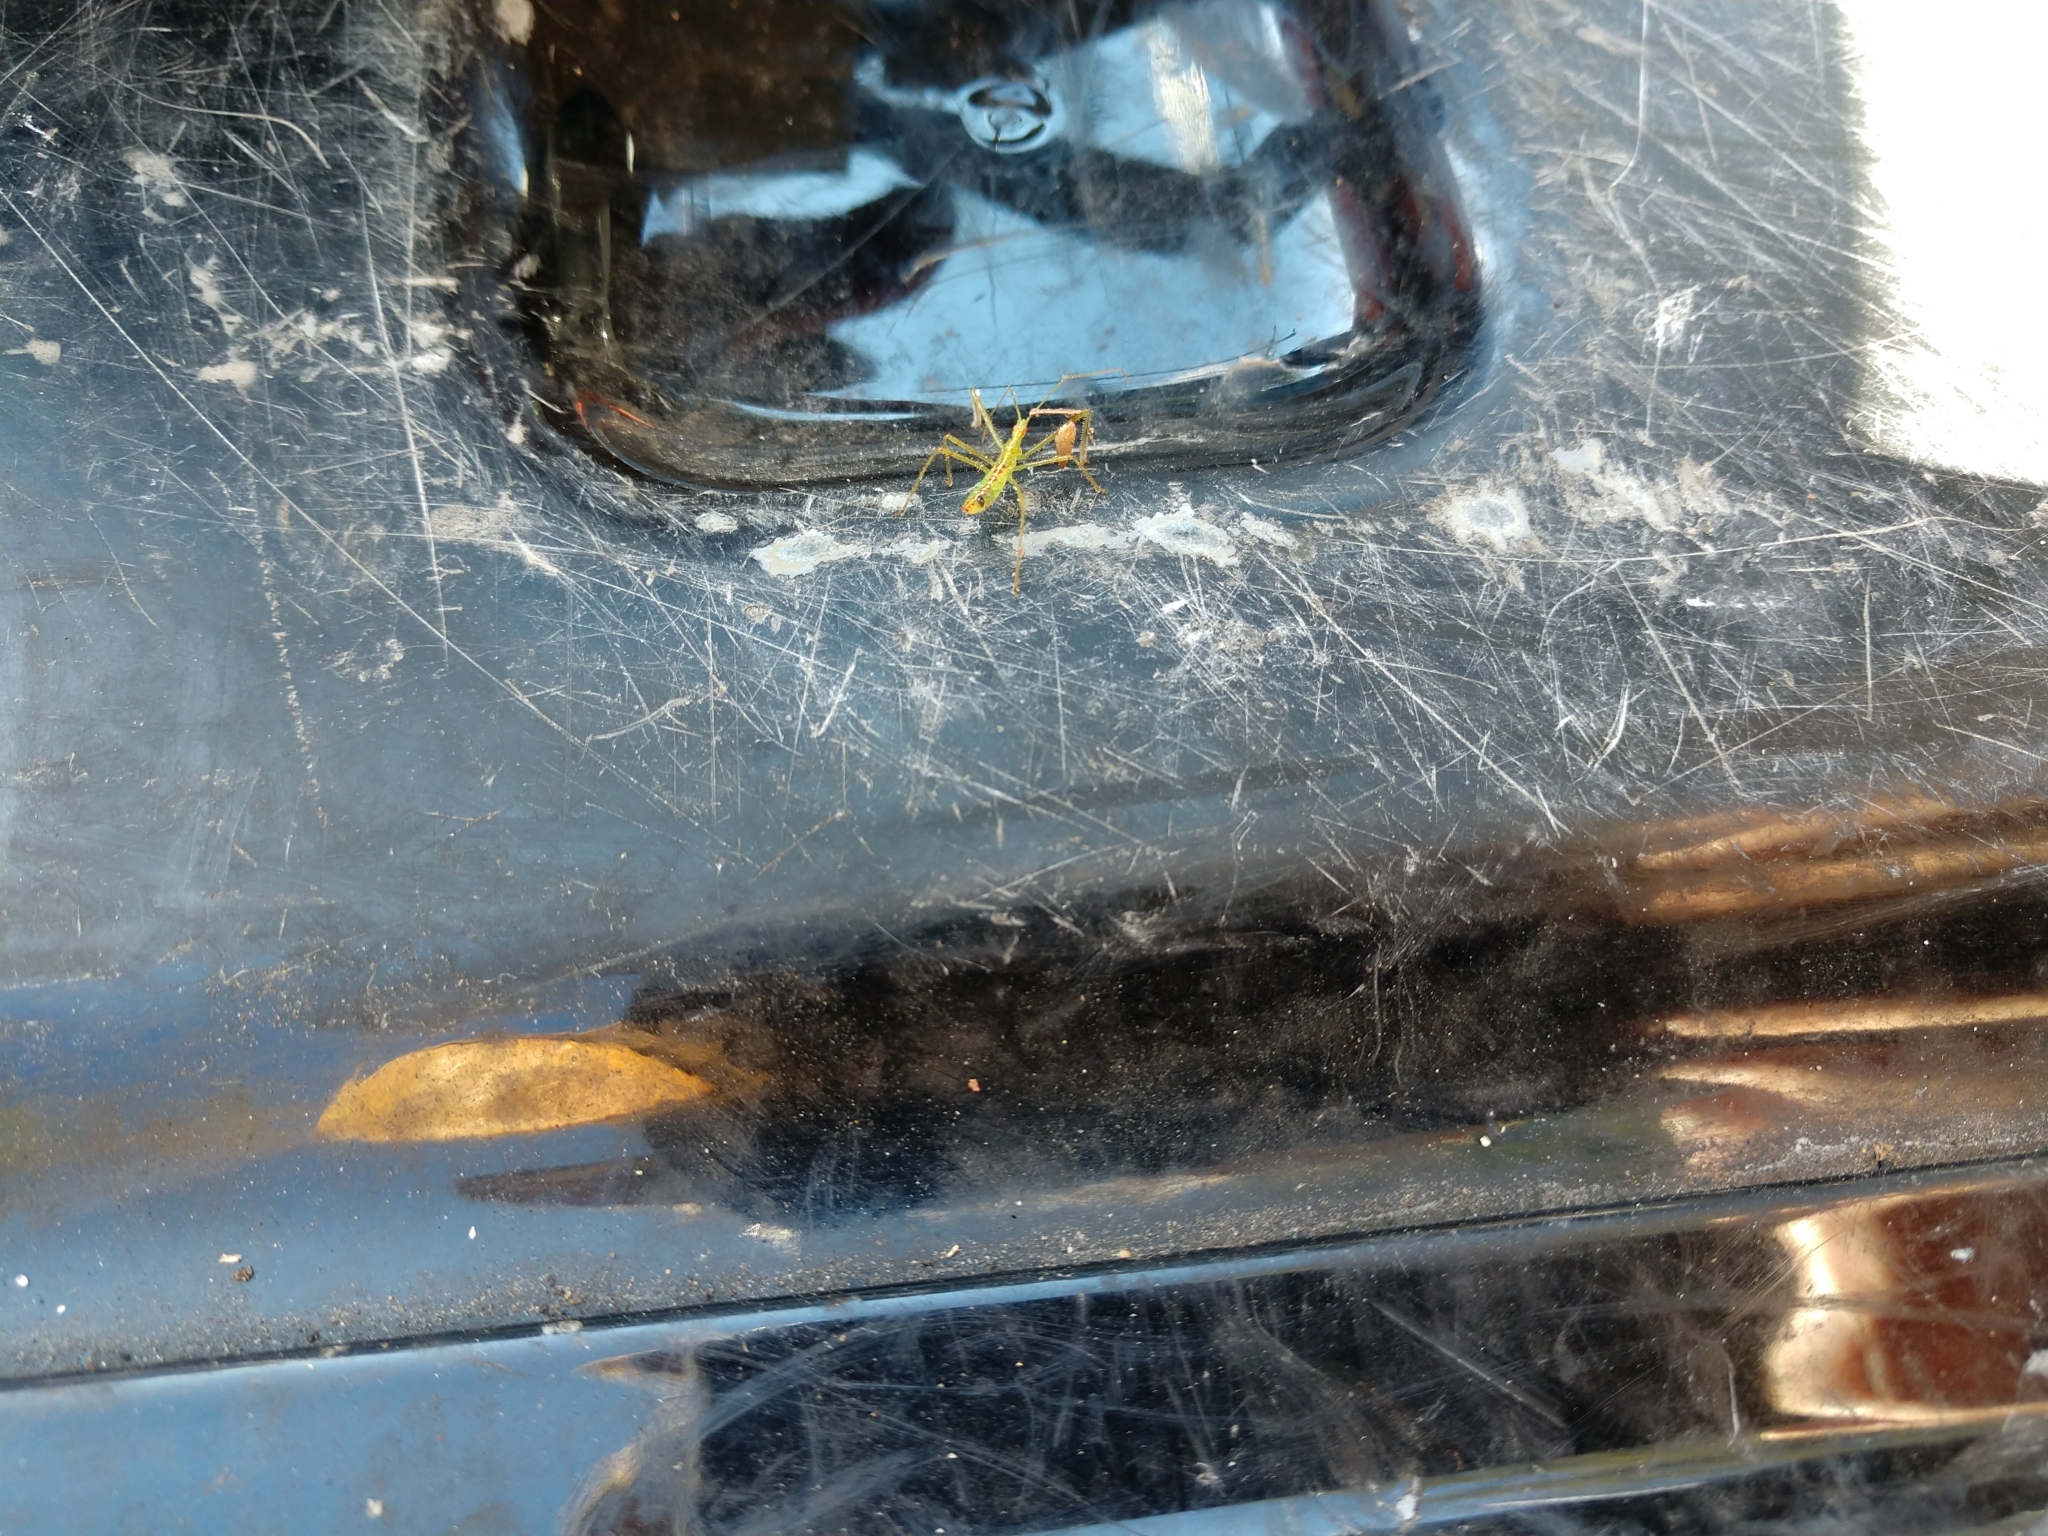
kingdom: Animalia
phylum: Arthropoda
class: Insecta
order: Hemiptera
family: Reduviidae
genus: Zelus
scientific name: Zelus luridus
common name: Pale green assassin bug
